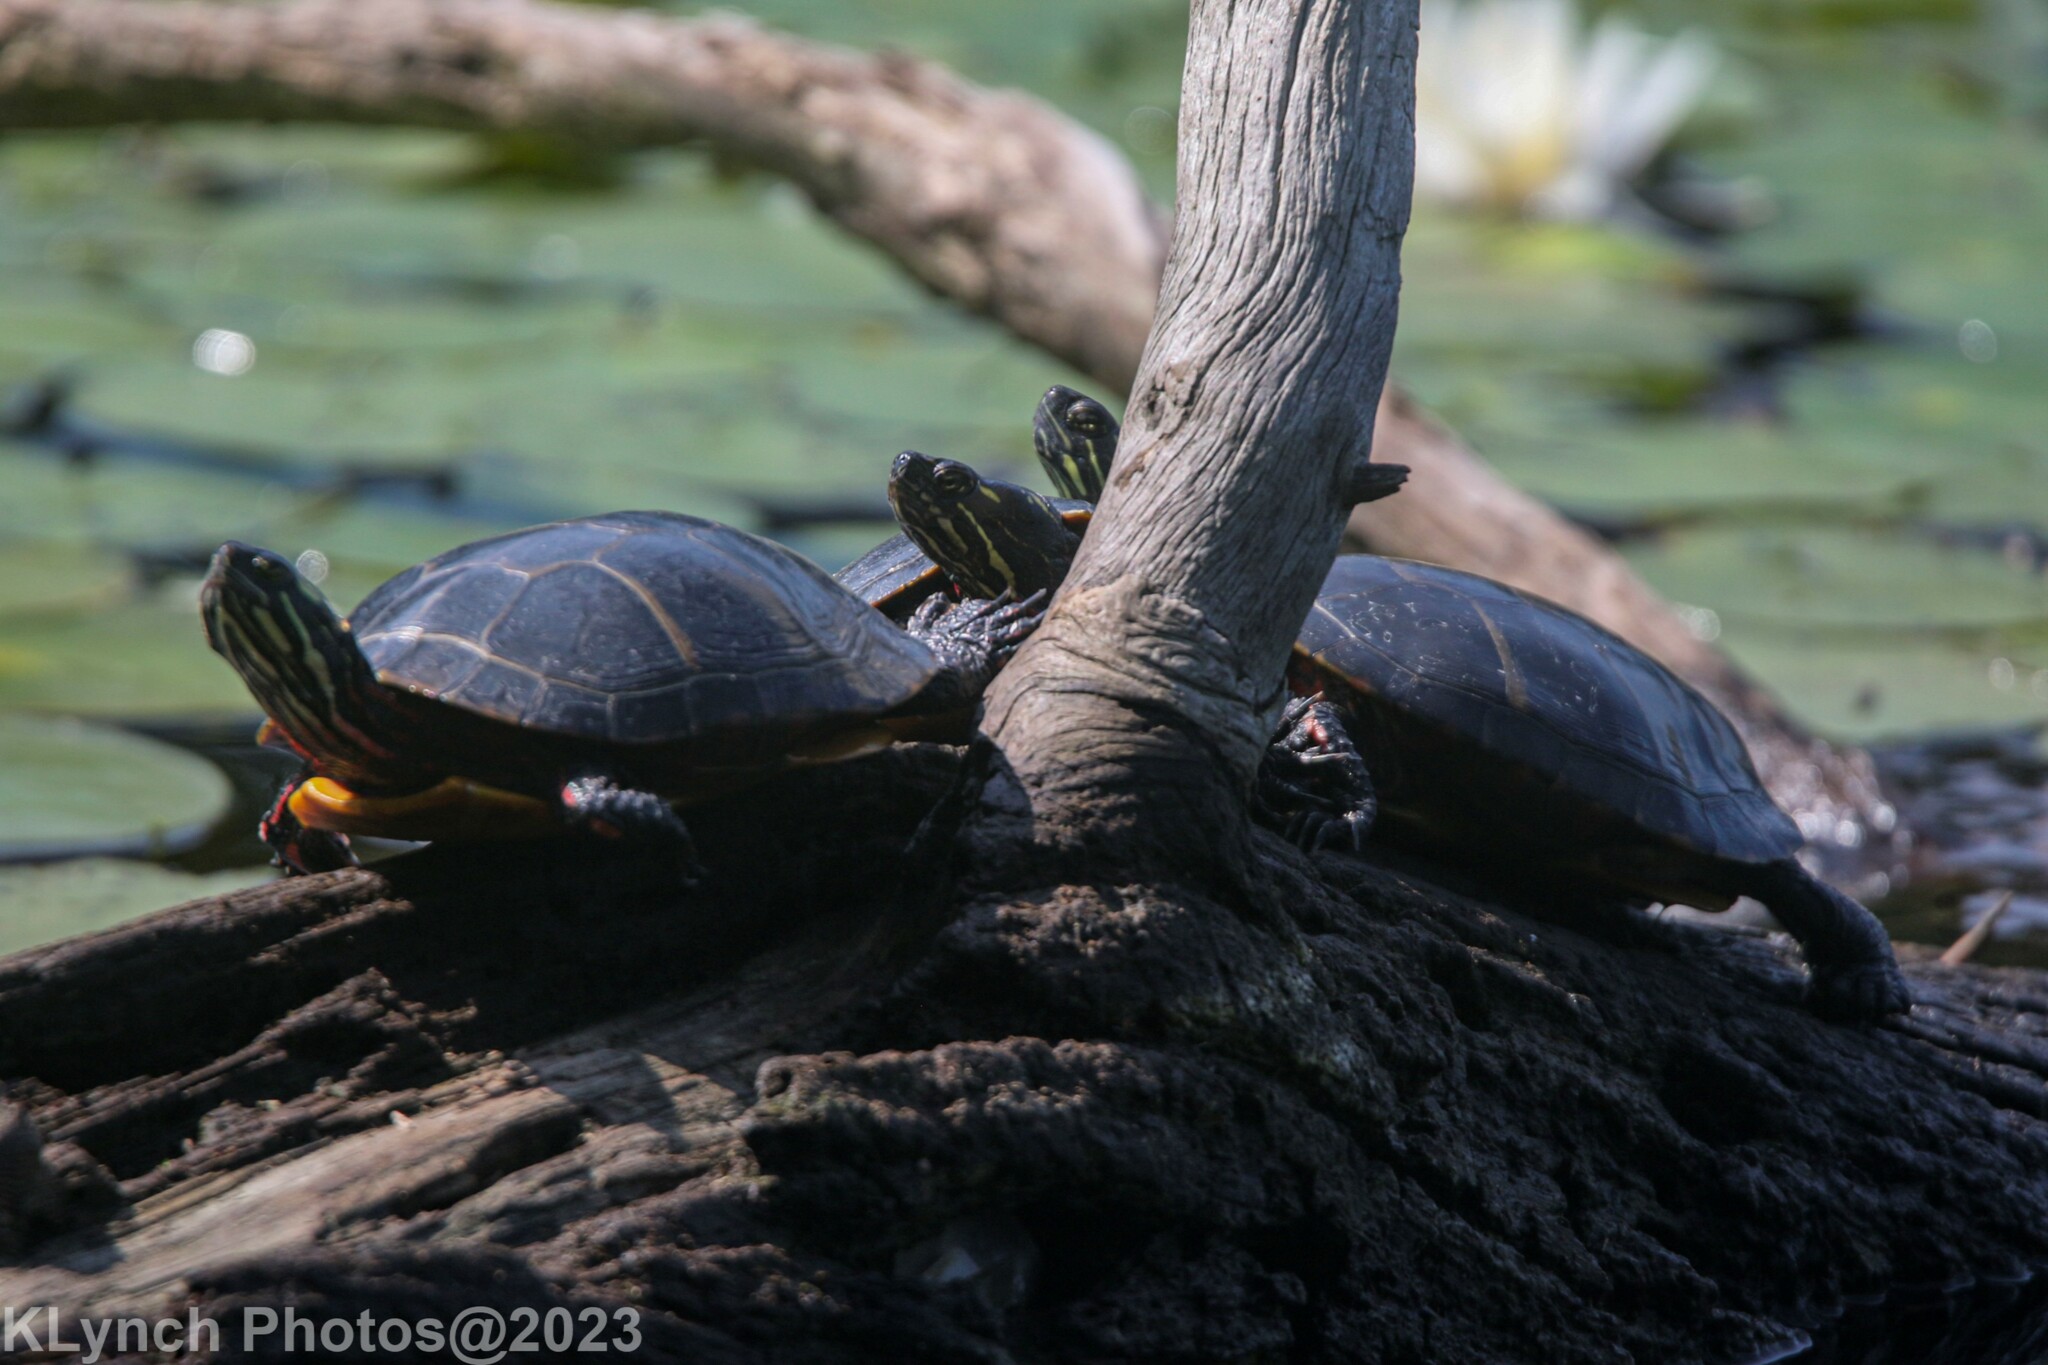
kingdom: Animalia
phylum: Chordata
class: Testudines
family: Emydidae
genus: Chrysemys
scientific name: Chrysemys picta
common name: Painted turtle
